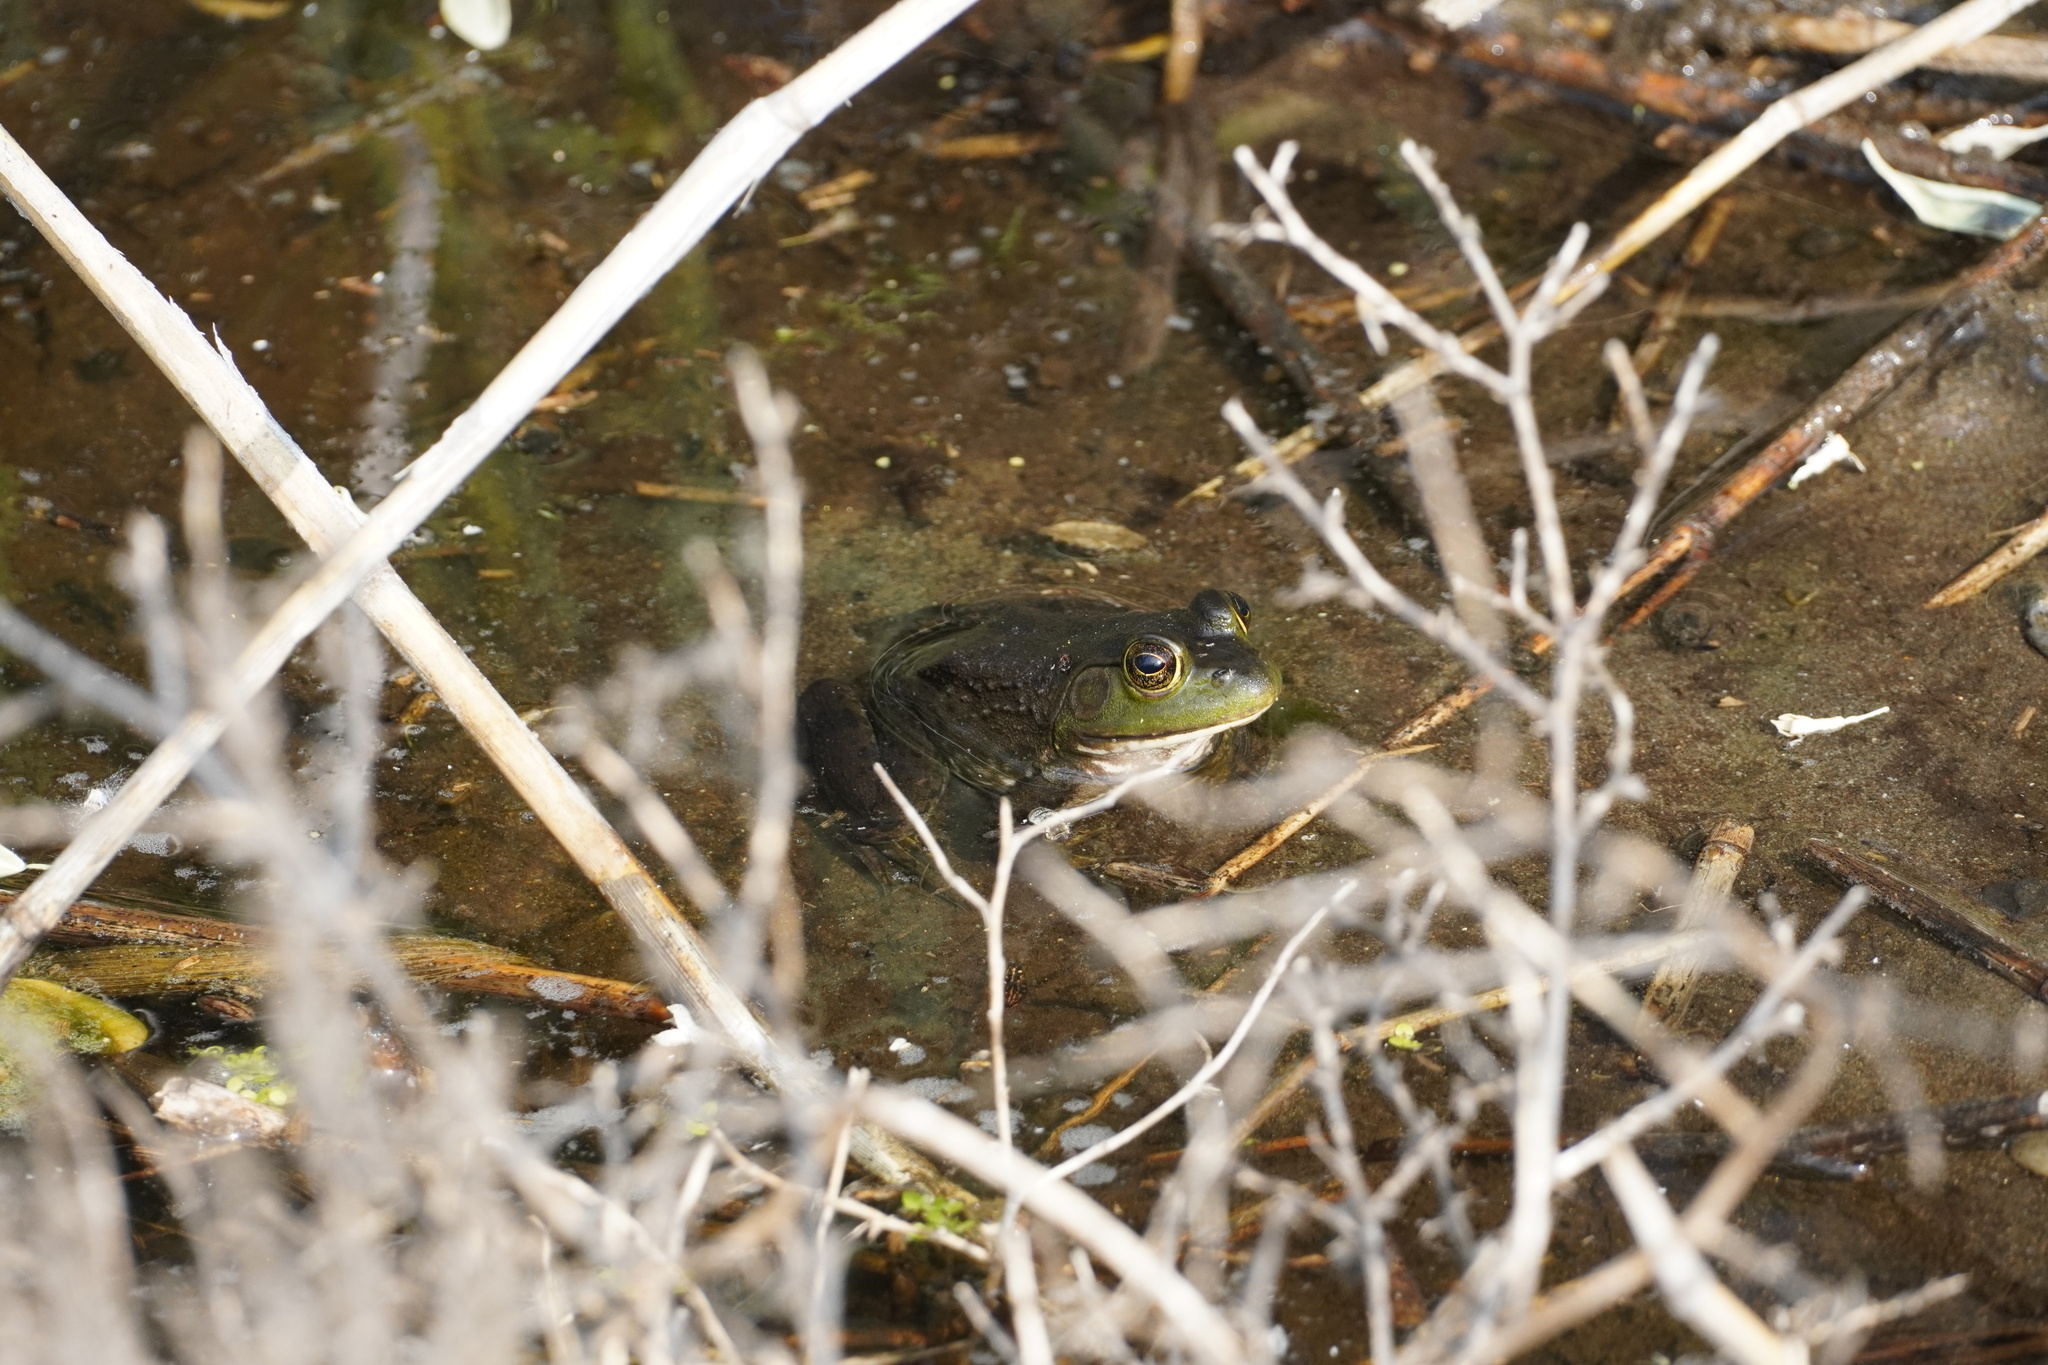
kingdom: Animalia
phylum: Chordata
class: Amphibia
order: Anura
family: Ranidae
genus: Lithobates
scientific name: Lithobates catesbeianus
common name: American bullfrog
